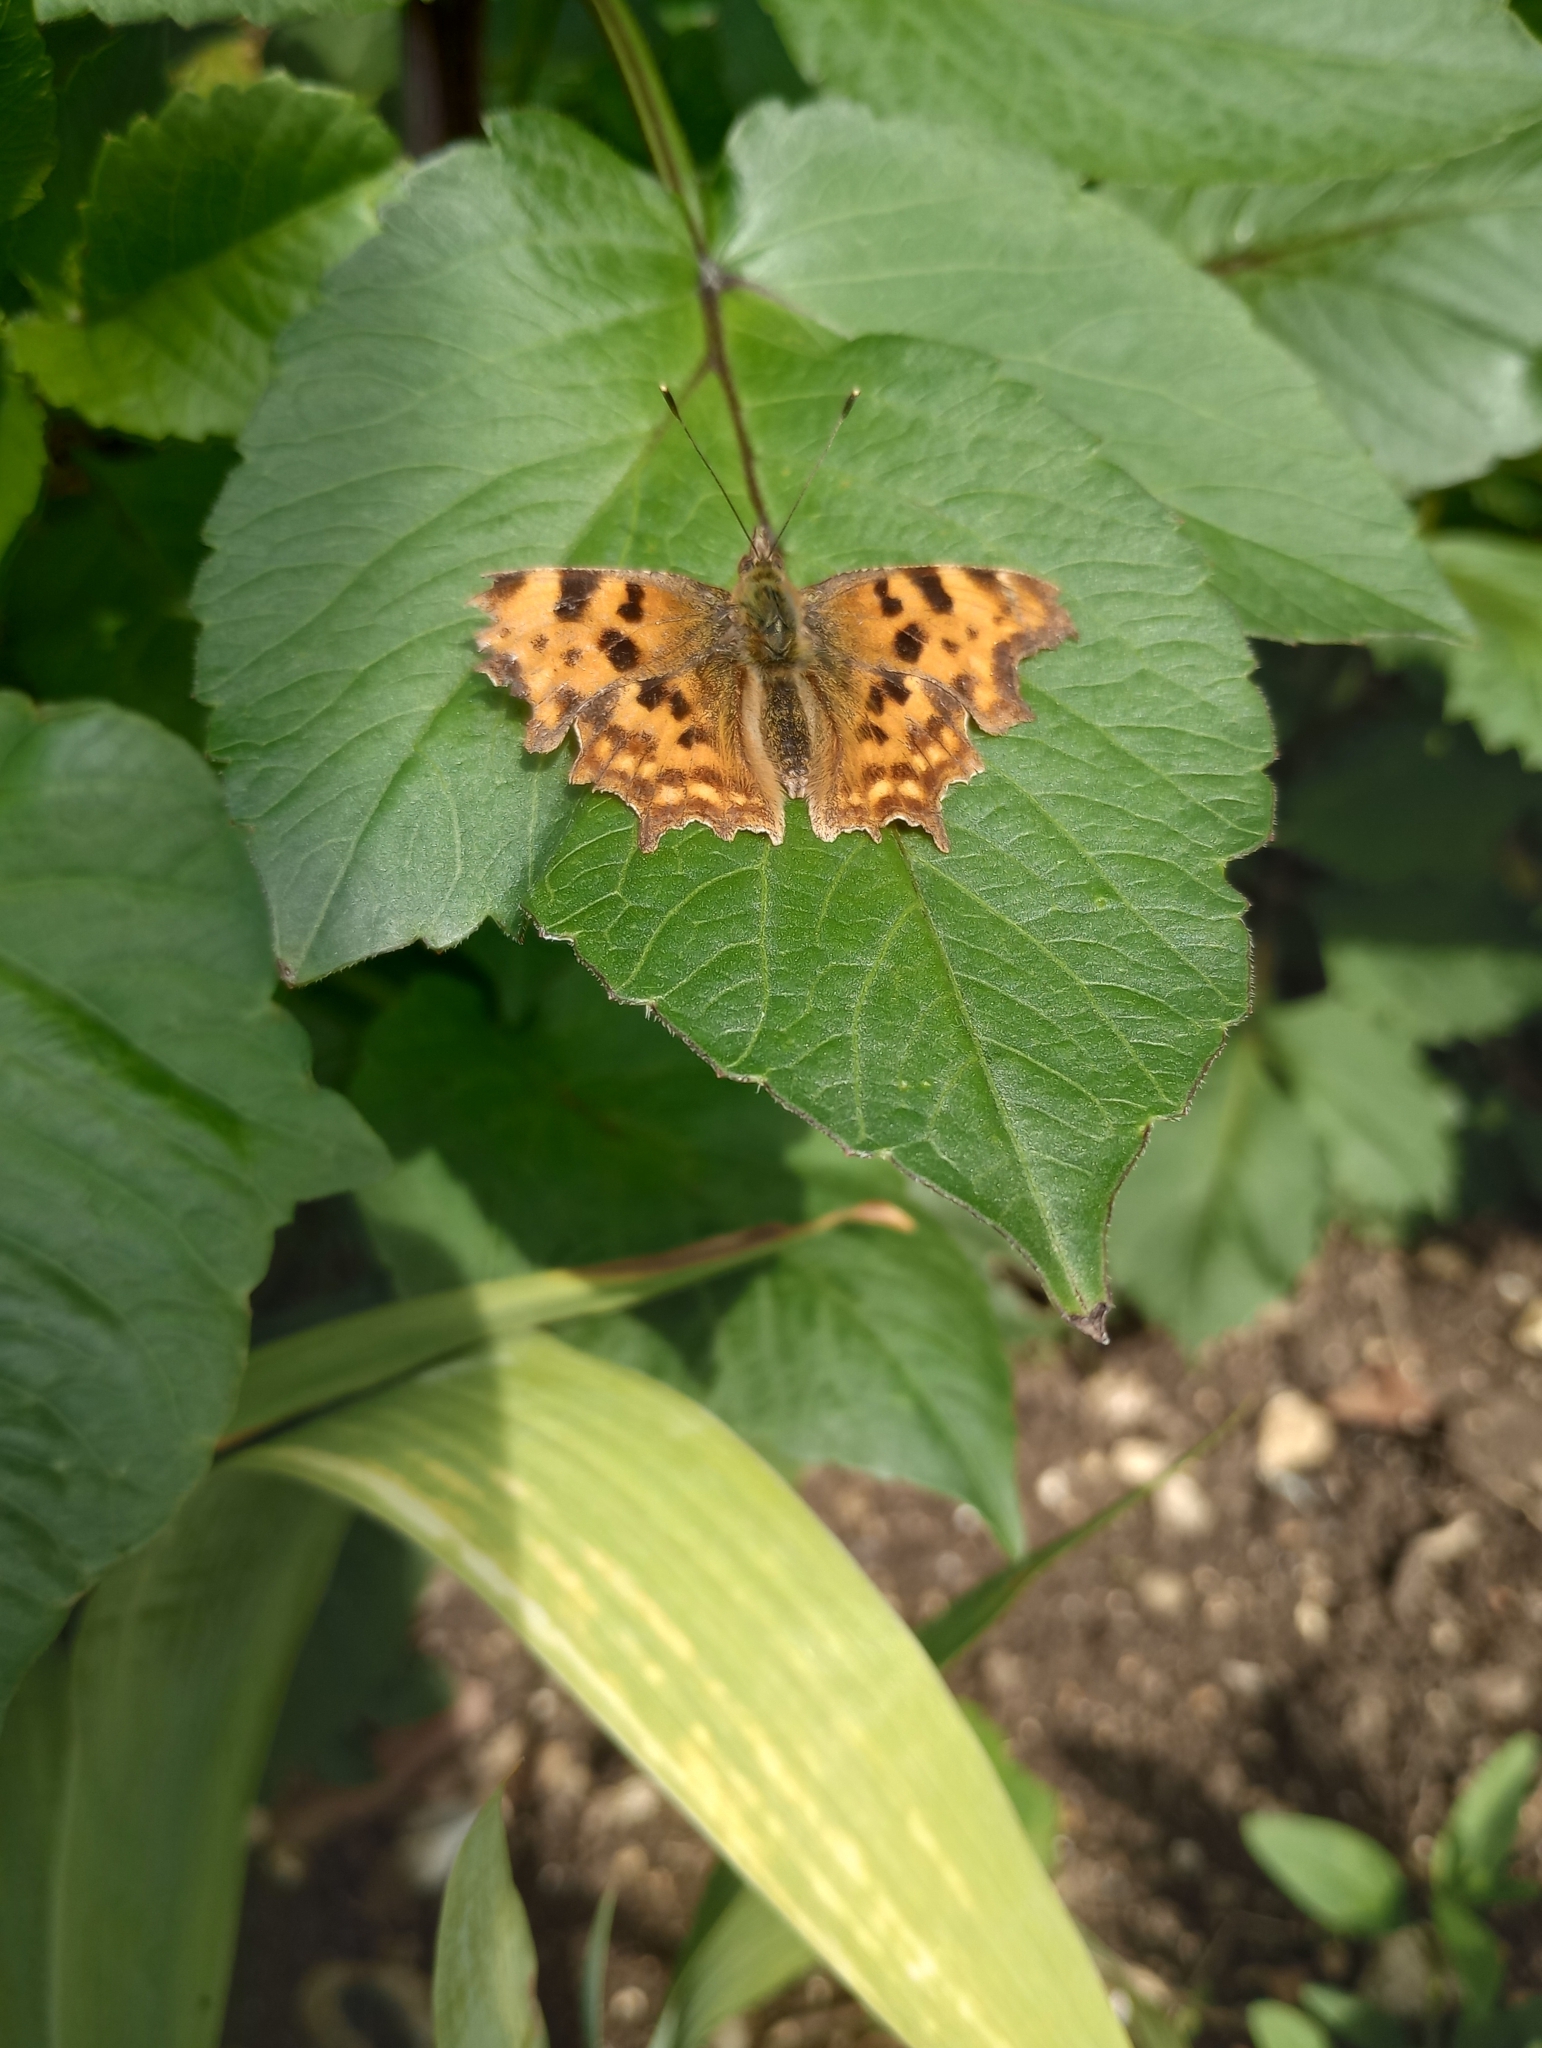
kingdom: Animalia
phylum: Arthropoda
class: Insecta
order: Lepidoptera
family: Nymphalidae
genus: Polygonia
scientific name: Polygonia c-album
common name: Comma
